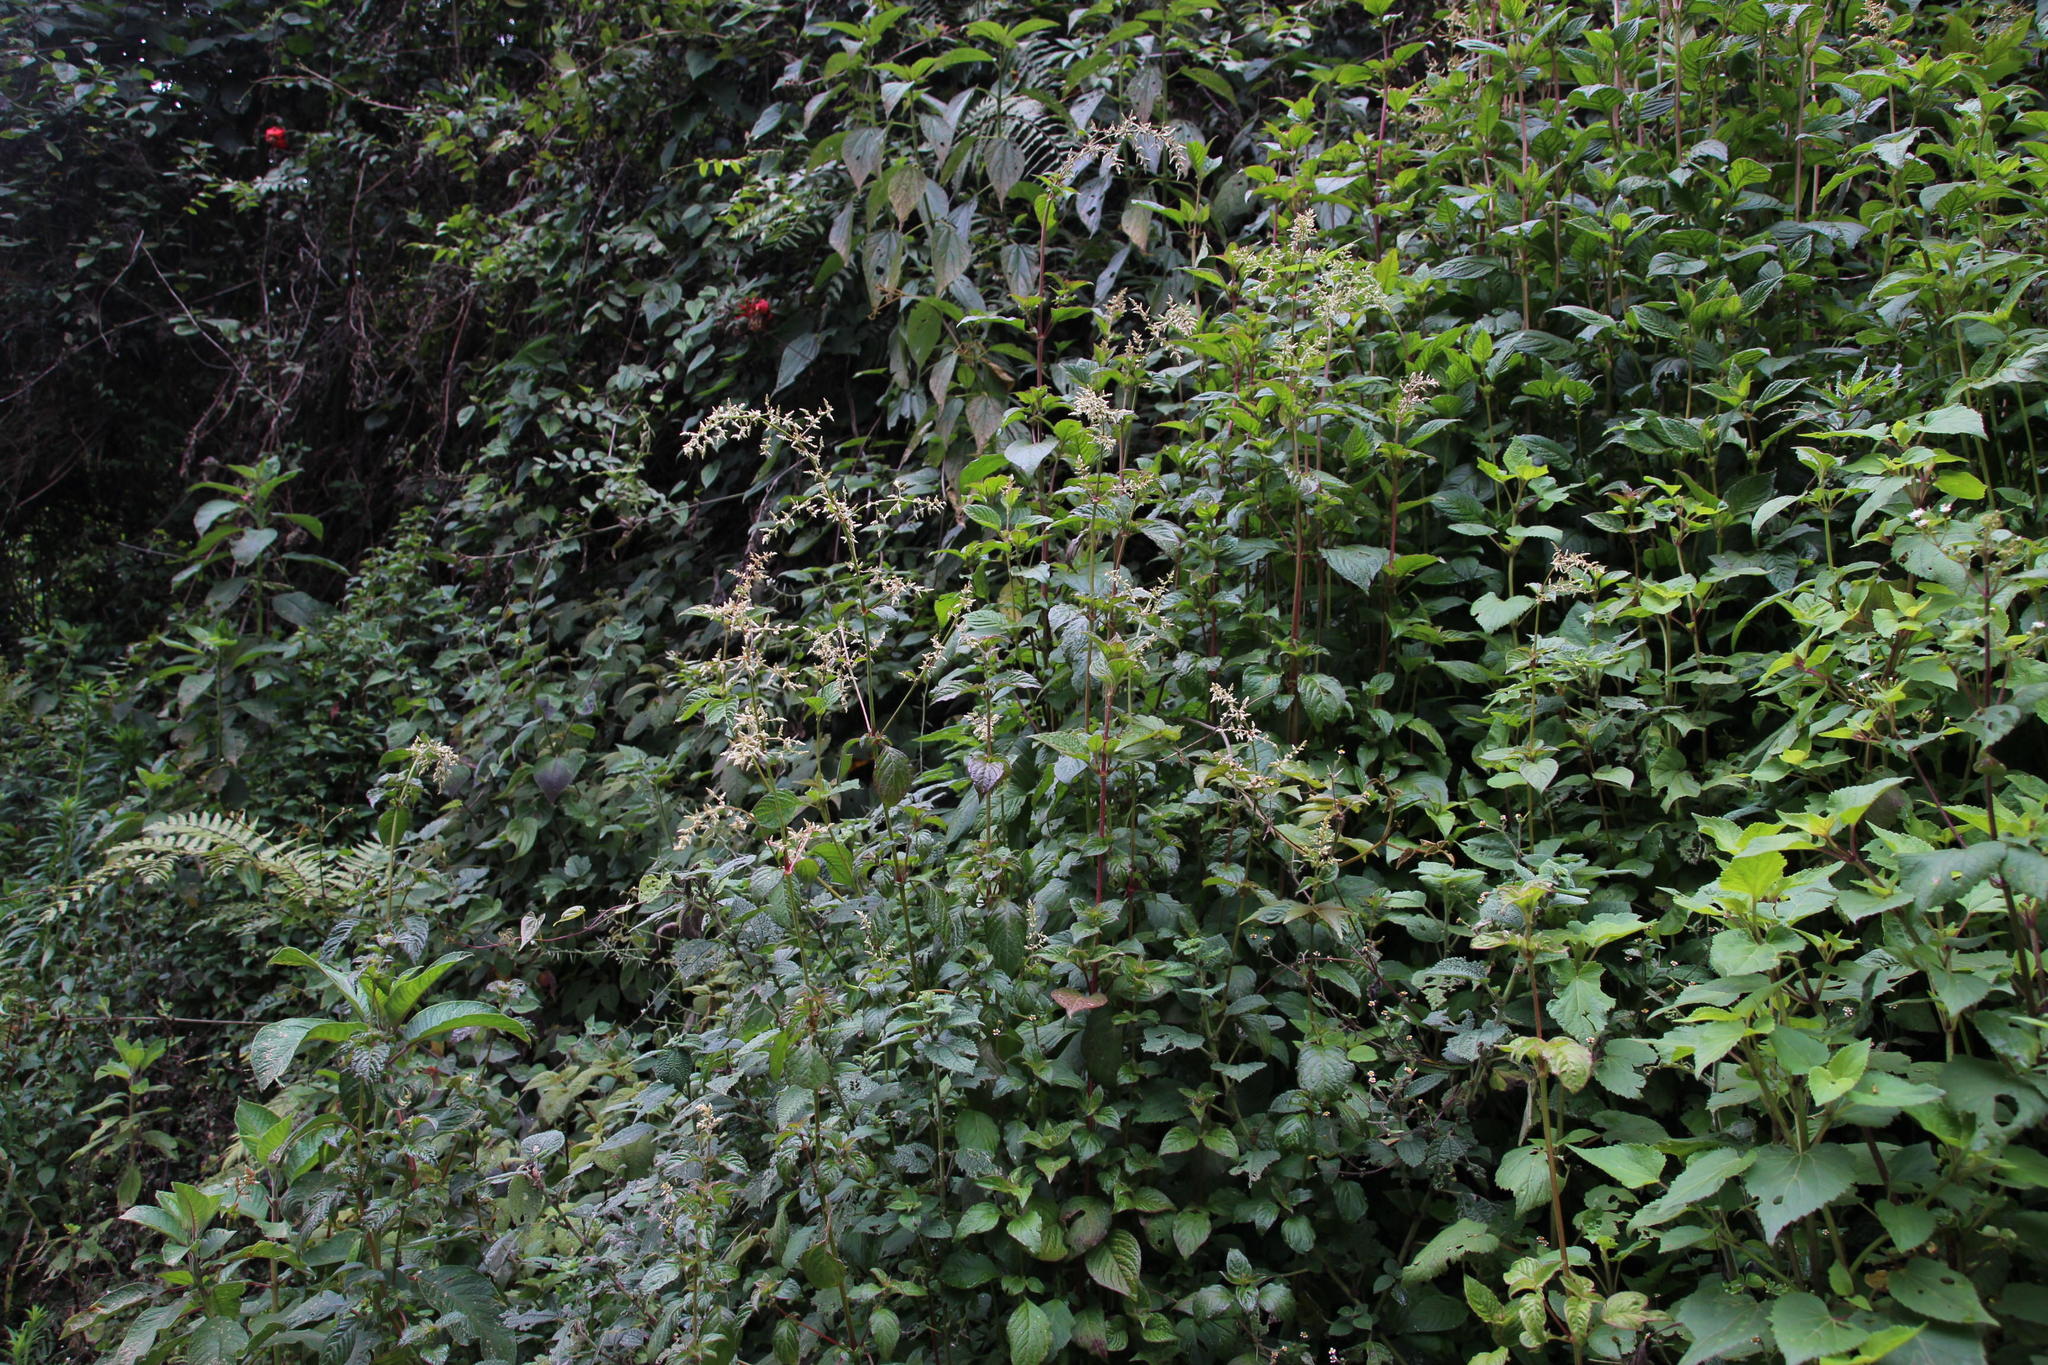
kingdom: Plantae
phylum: Tracheophyta
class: Magnoliopsida
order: Caryophyllales
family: Amaranthaceae
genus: Iresine
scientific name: Iresine diffusa
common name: Juba's-bush
